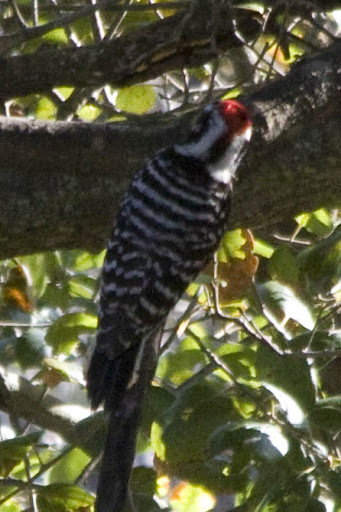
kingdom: Animalia
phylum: Chordata
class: Aves
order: Piciformes
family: Picidae
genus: Dryobates
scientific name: Dryobates nuttallii
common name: Nuttall's woodpecker
